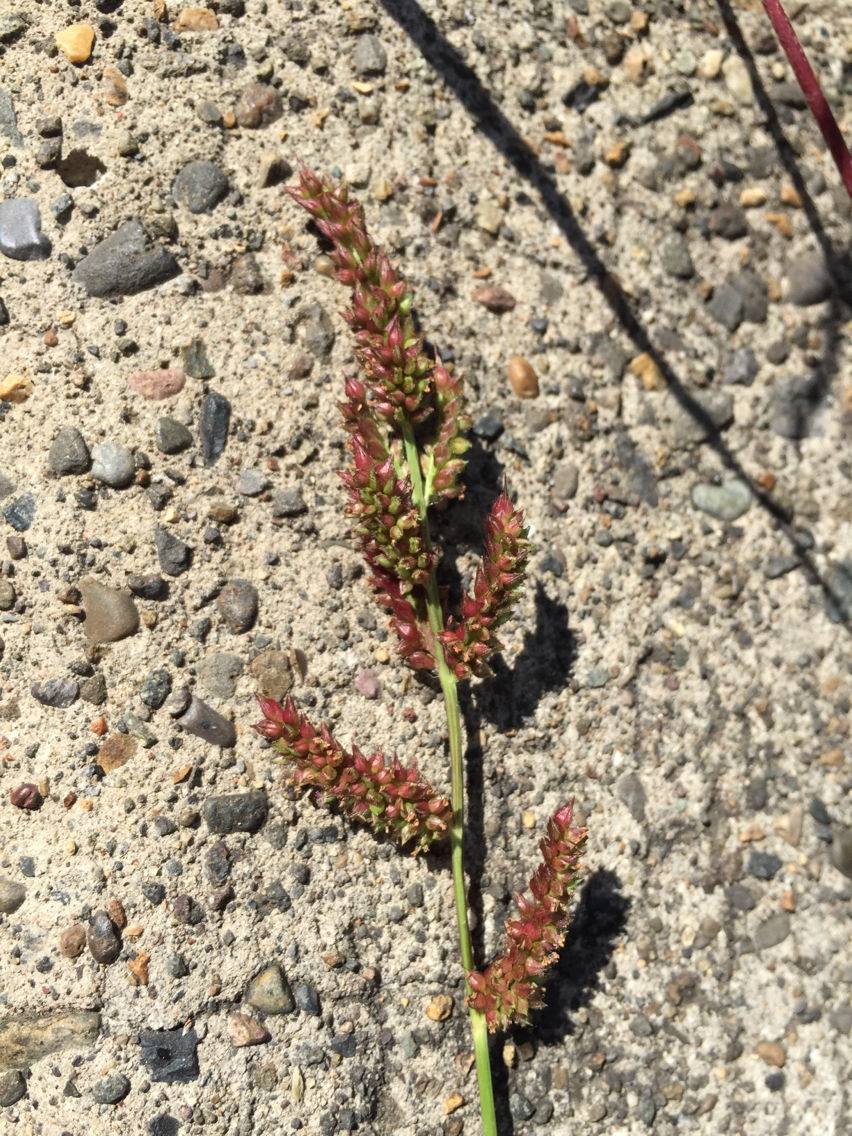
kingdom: Plantae
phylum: Tracheophyta
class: Liliopsida
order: Poales
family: Poaceae
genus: Echinochloa
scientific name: Echinochloa crus-galli
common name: Cockspur
